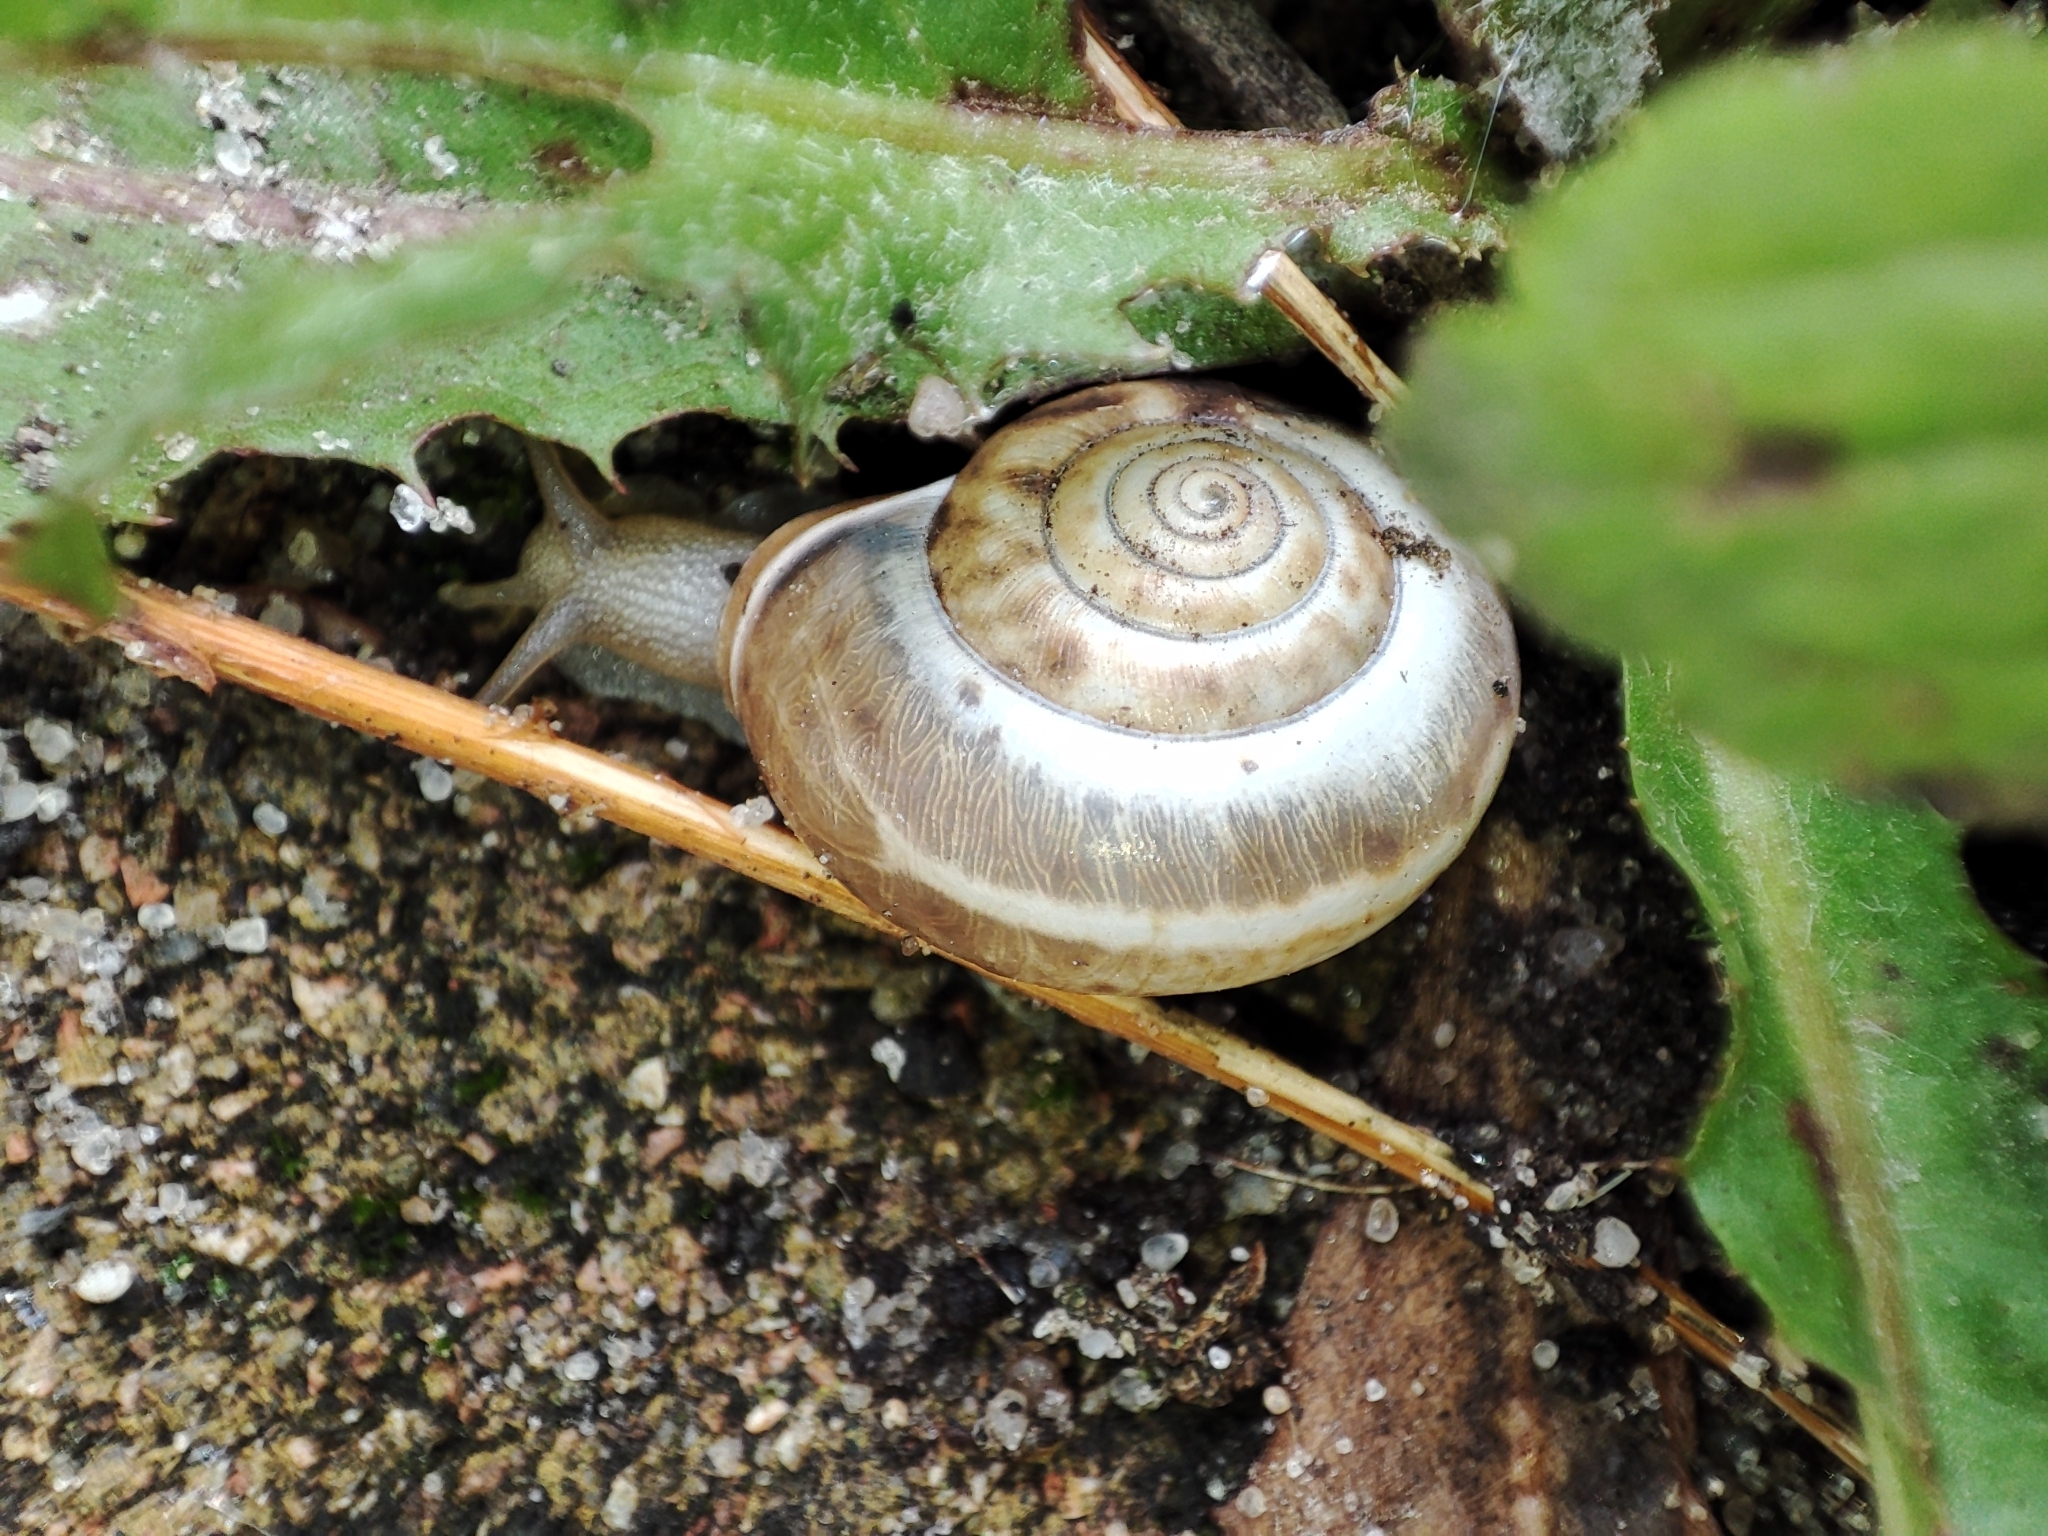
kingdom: Animalia
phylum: Mollusca
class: Gastropoda
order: Stylommatophora
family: Hygromiidae
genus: Monacha
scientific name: Monacha cartusiana
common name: Carthusian snail
